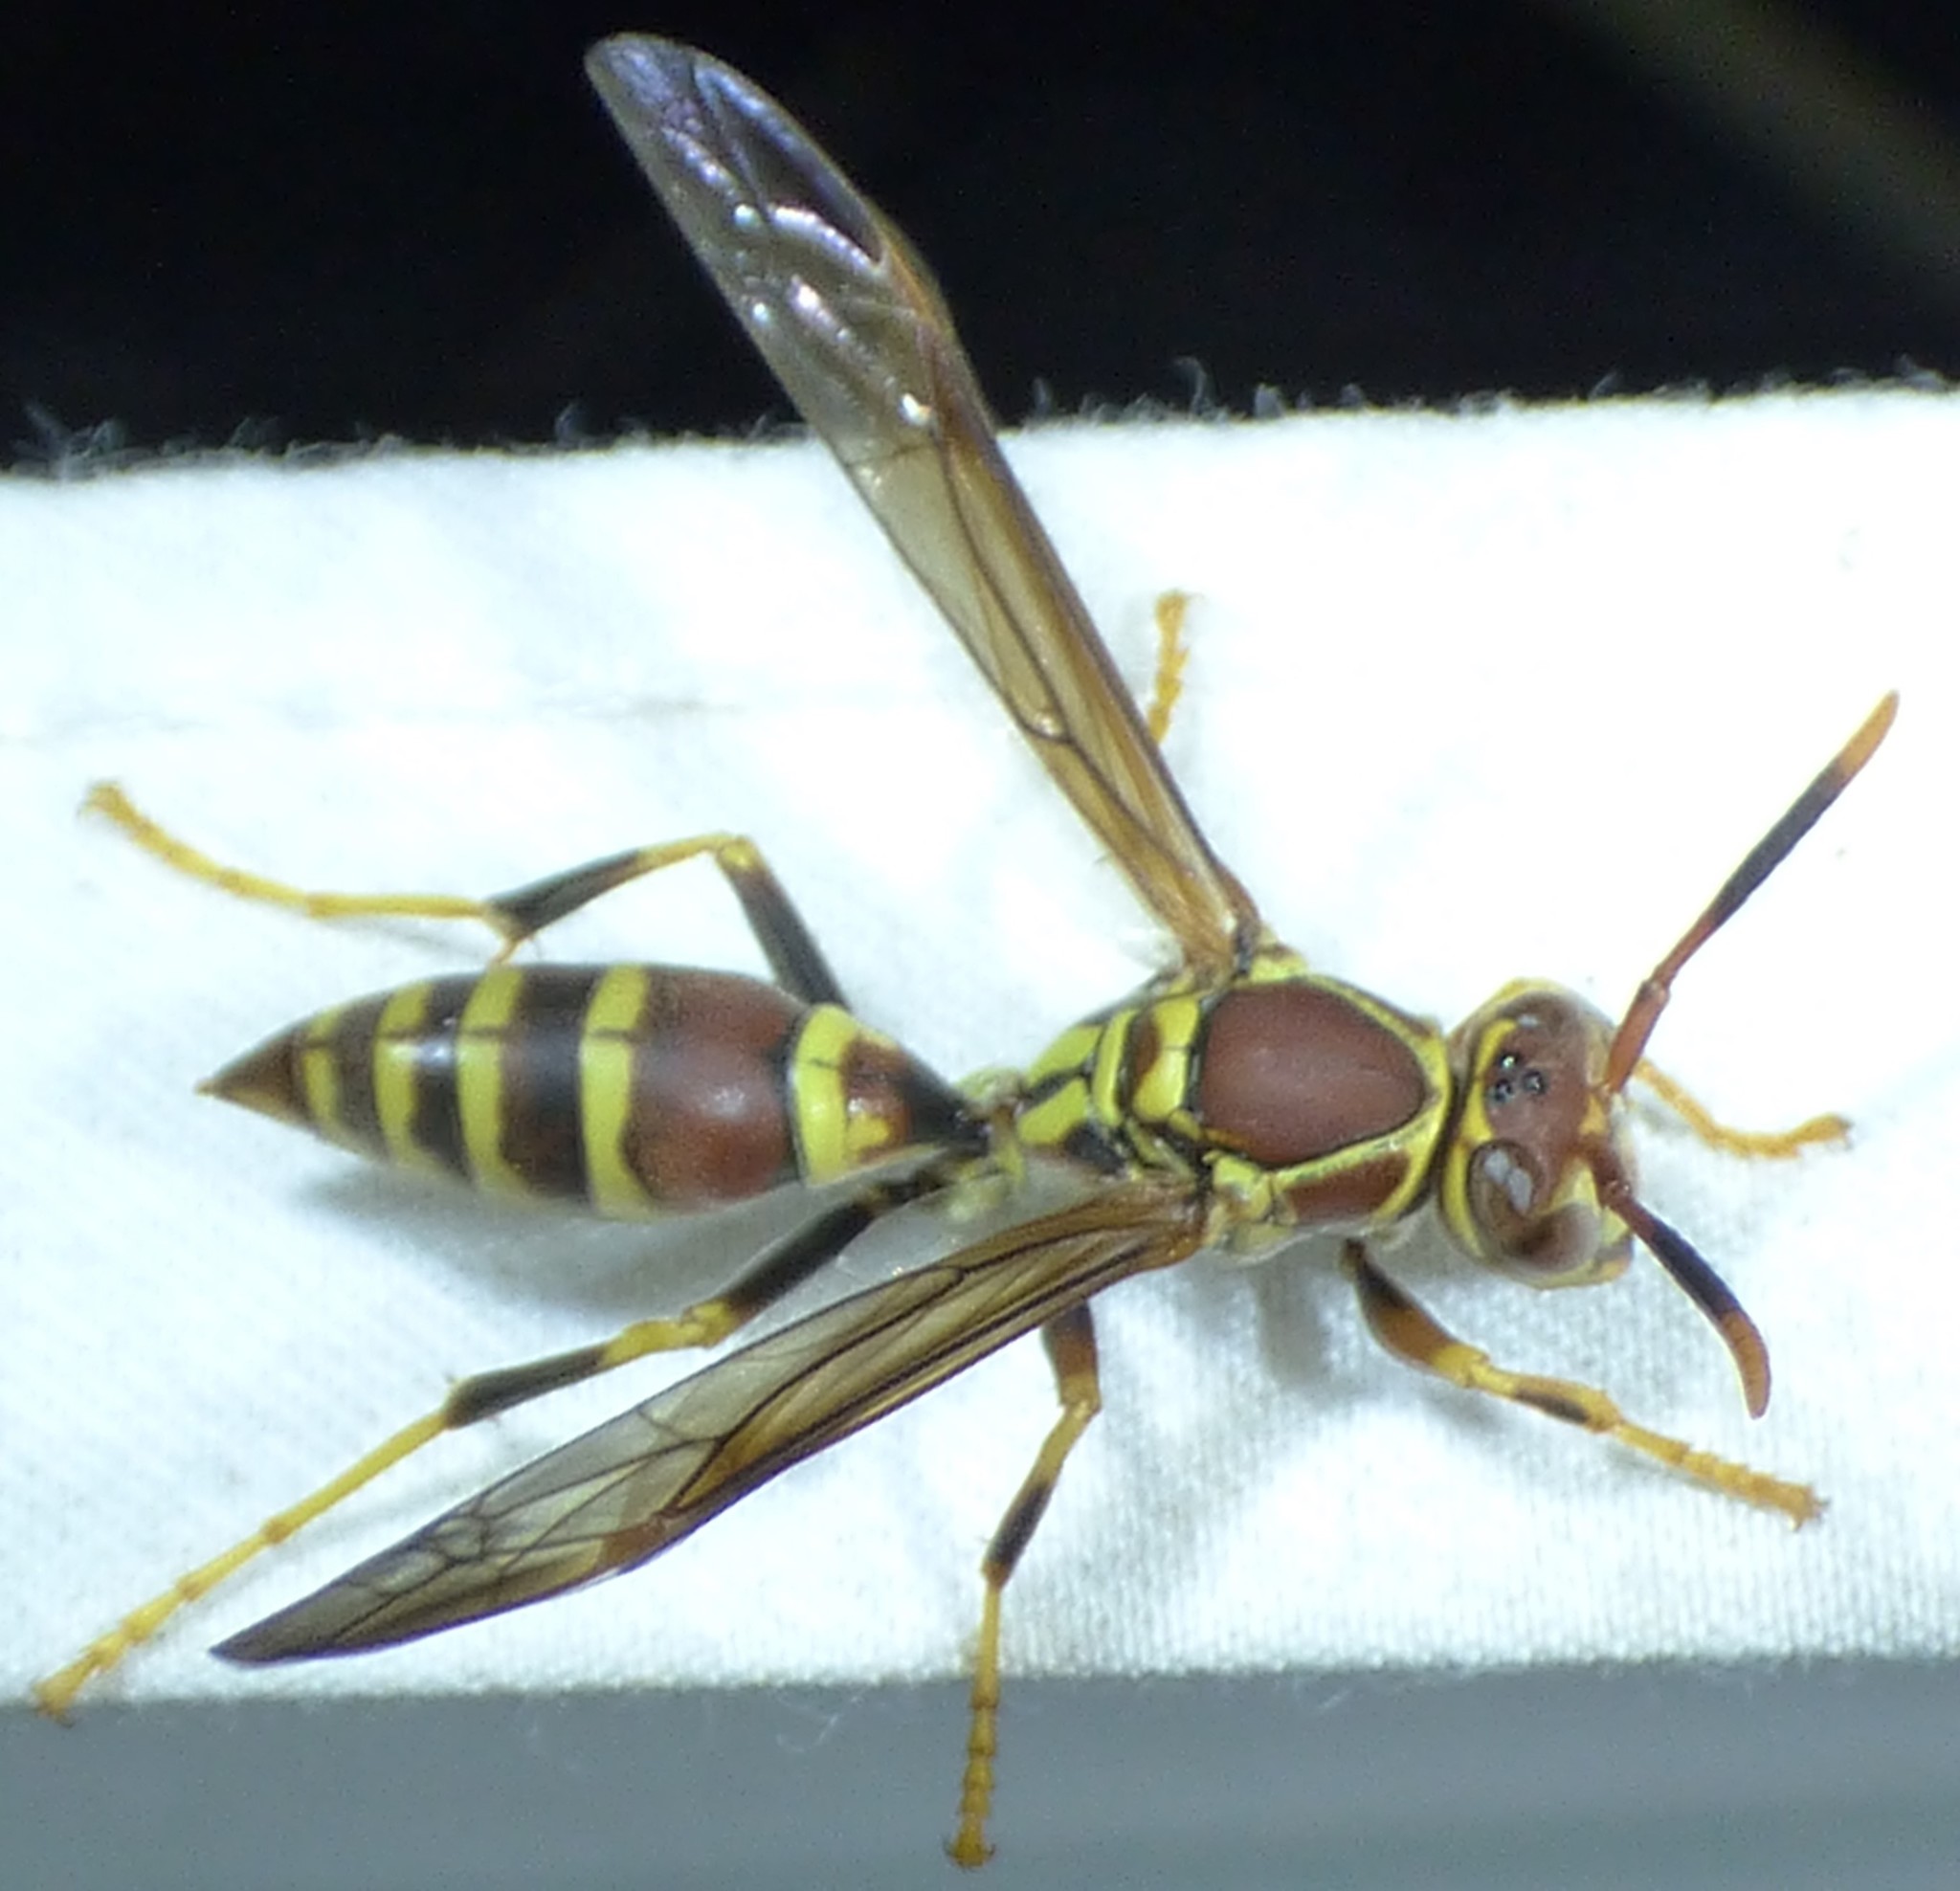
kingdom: Animalia
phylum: Arthropoda
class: Insecta
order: Hymenoptera
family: Eumenidae
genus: Polistes
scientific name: Polistes exclamans
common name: Paper wasp
